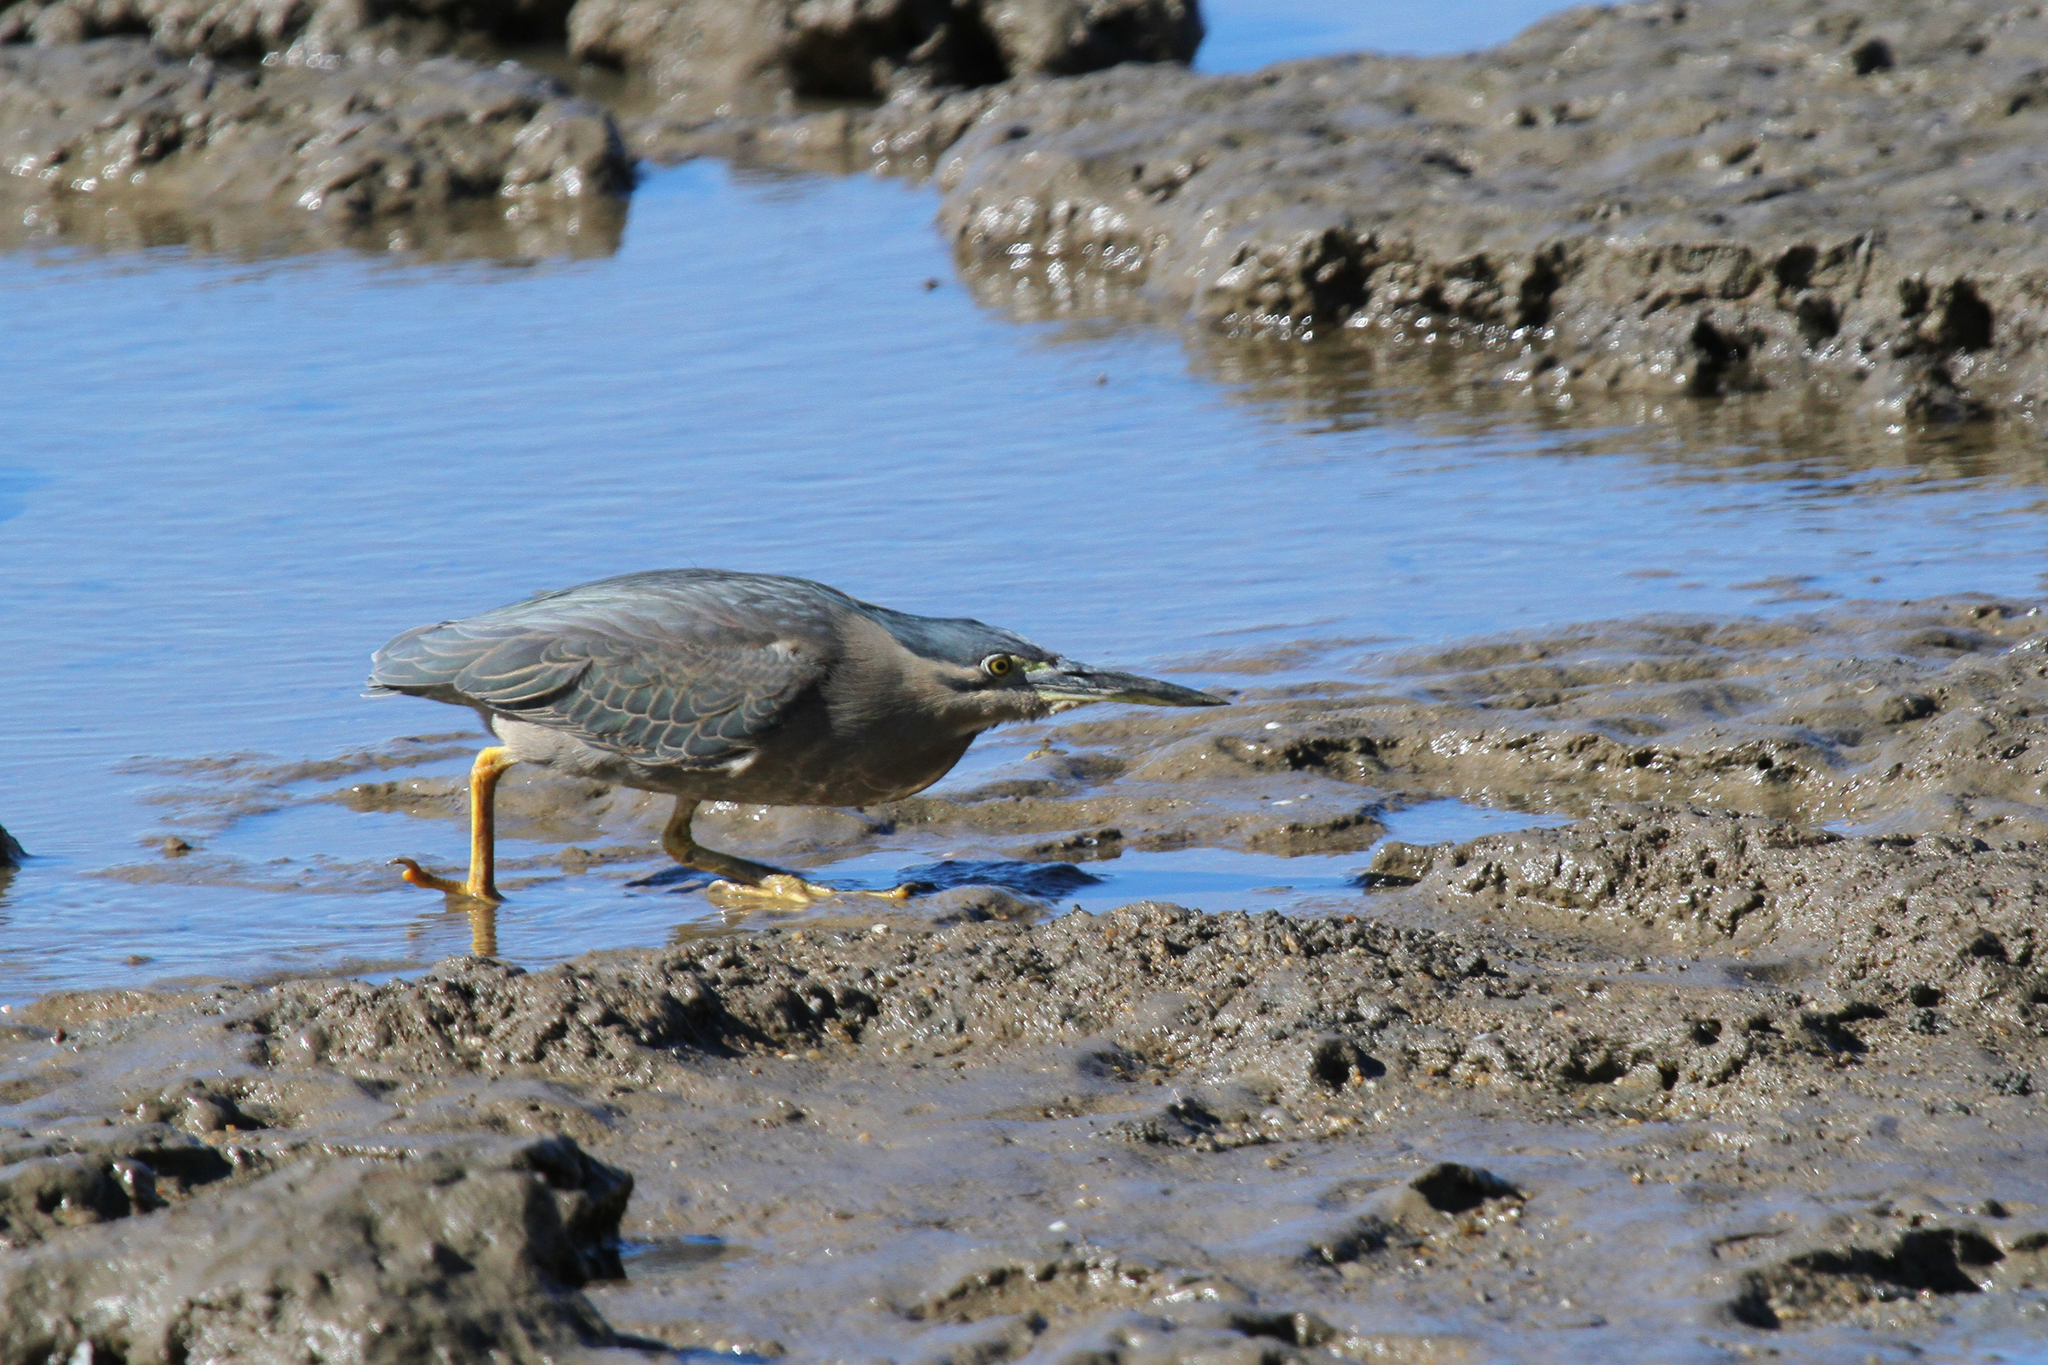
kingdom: Animalia
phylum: Chordata
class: Aves
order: Pelecaniformes
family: Ardeidae
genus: Butorides
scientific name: Butorides striata
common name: Striated heron
